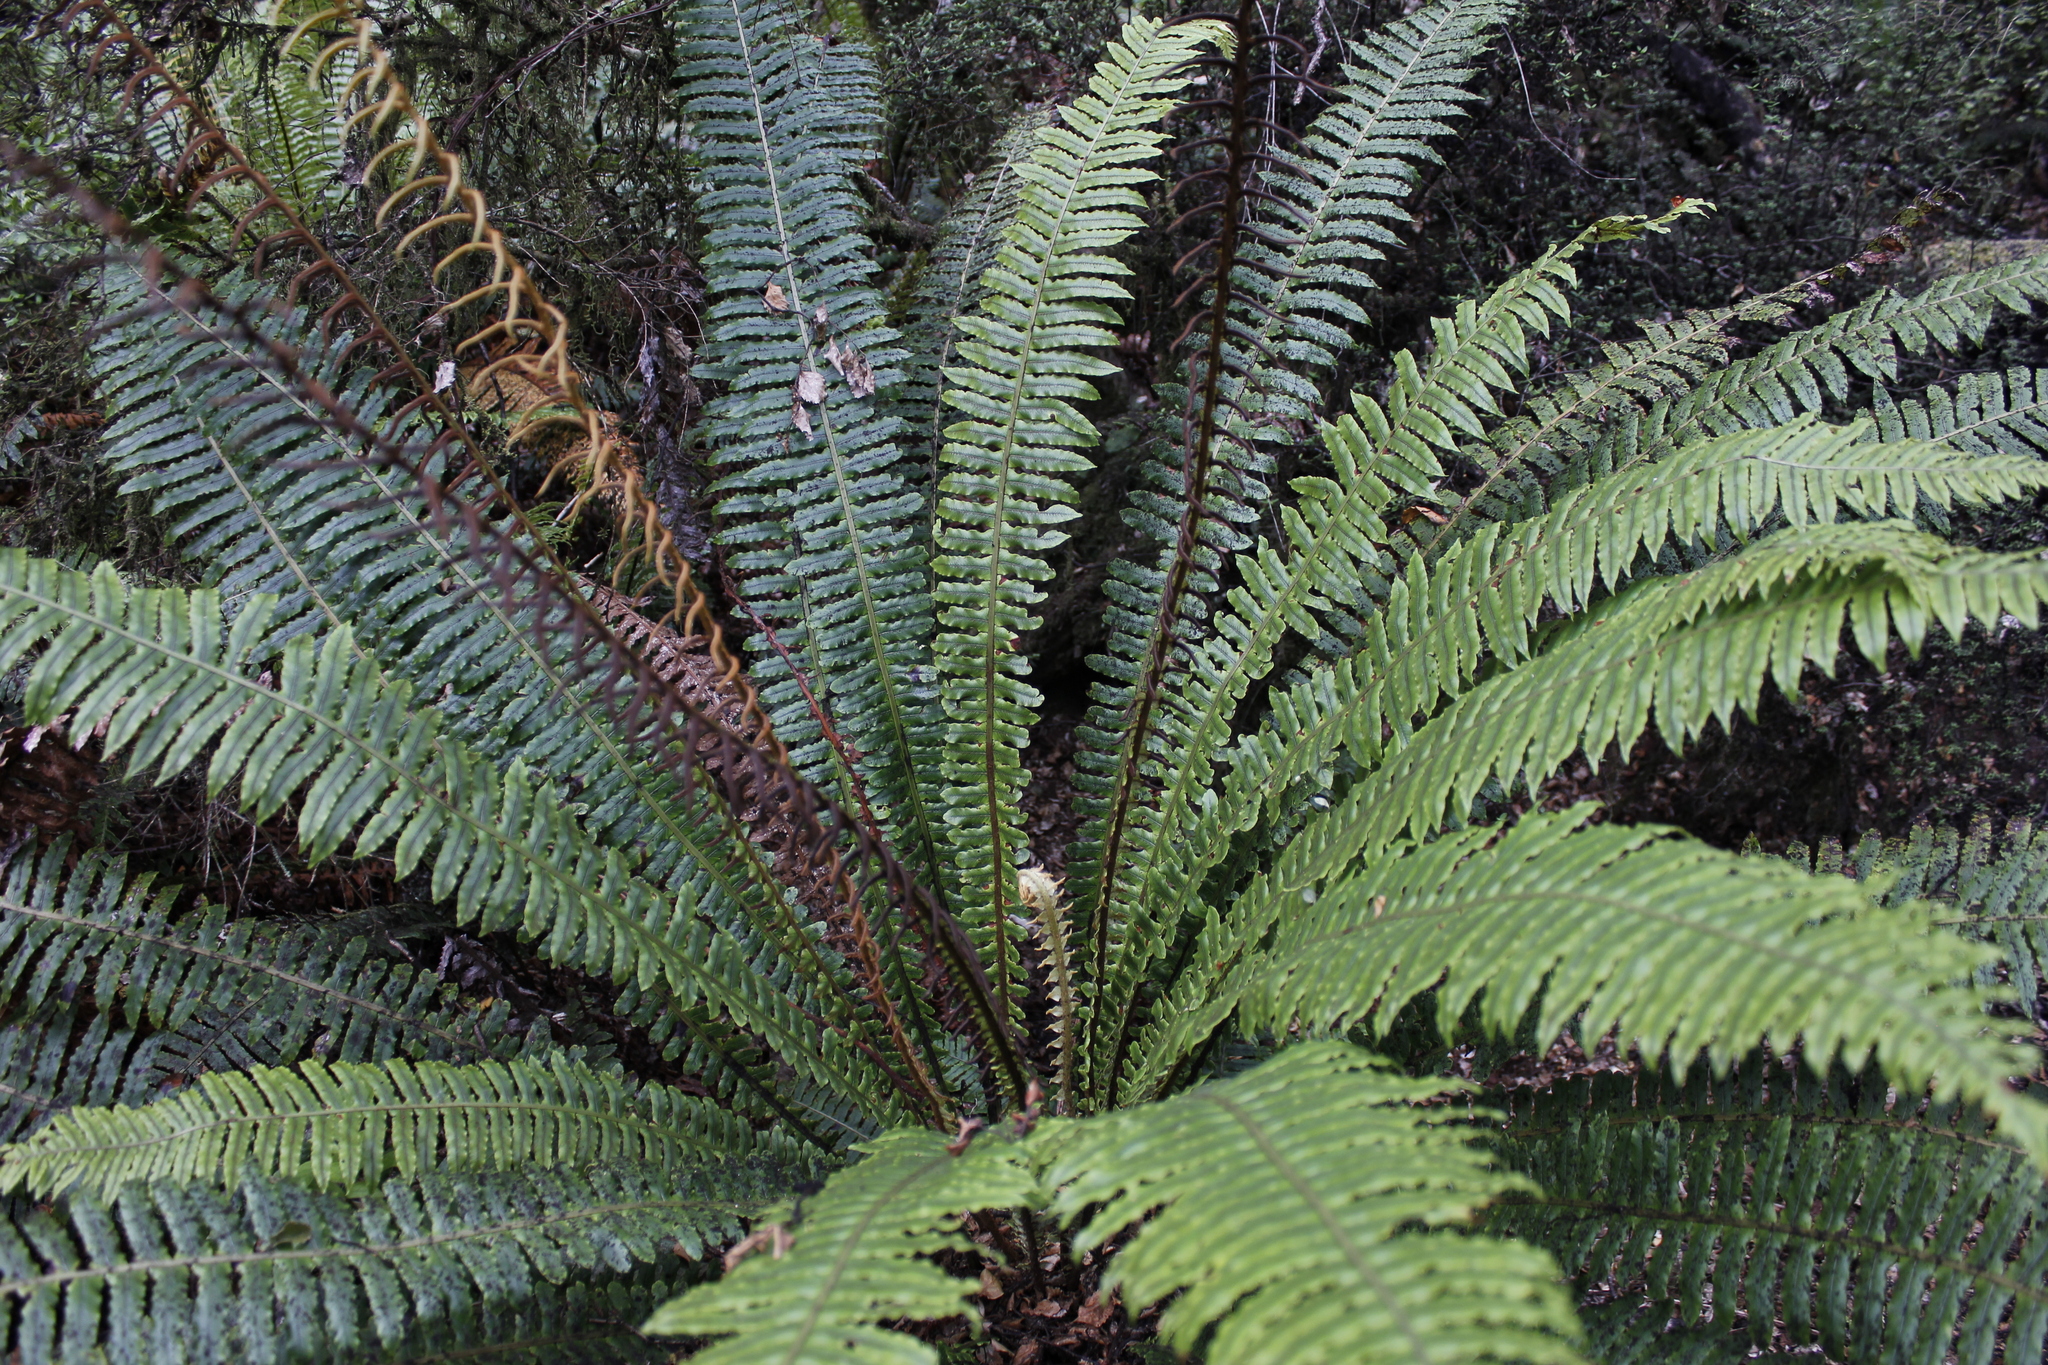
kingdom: Plantae
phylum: Tracheophyta
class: Polypodiopsida
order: Polypodiales
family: Blechnaceae
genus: Lomaria
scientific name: Lomaria discolor
